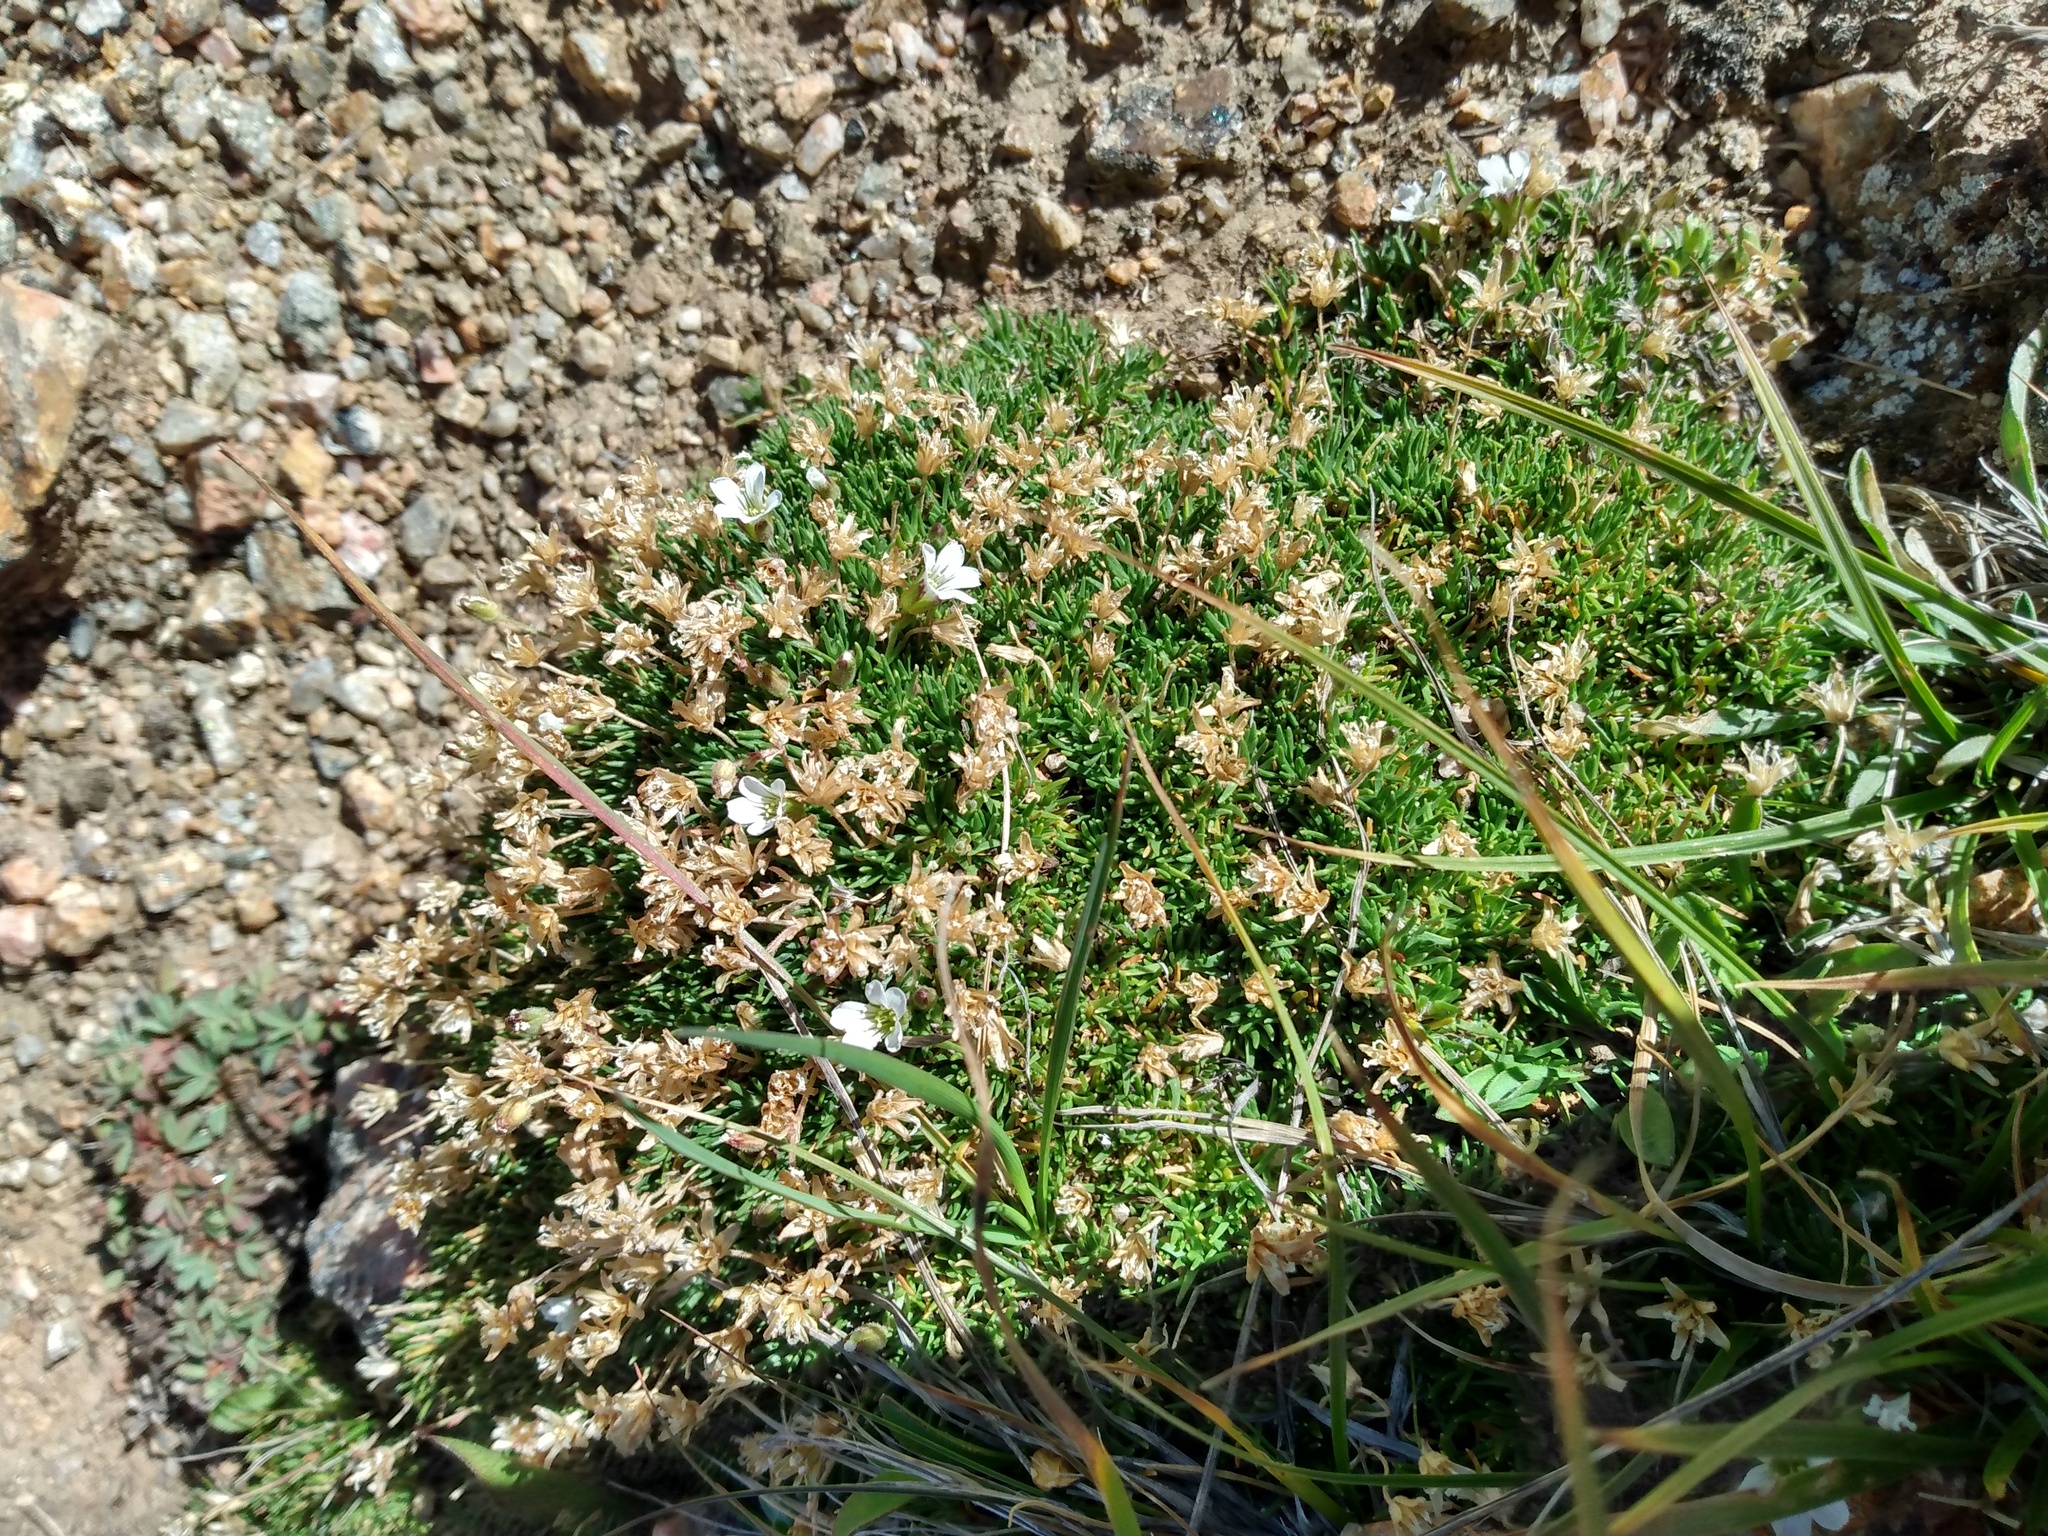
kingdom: Plantae
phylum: Tracheophyta
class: Magnoliopsida
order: Caryophyllales
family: Caryophyllaceae
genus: Cherleria
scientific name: Cherleria obtusiloba
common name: Alpine stitchwort
